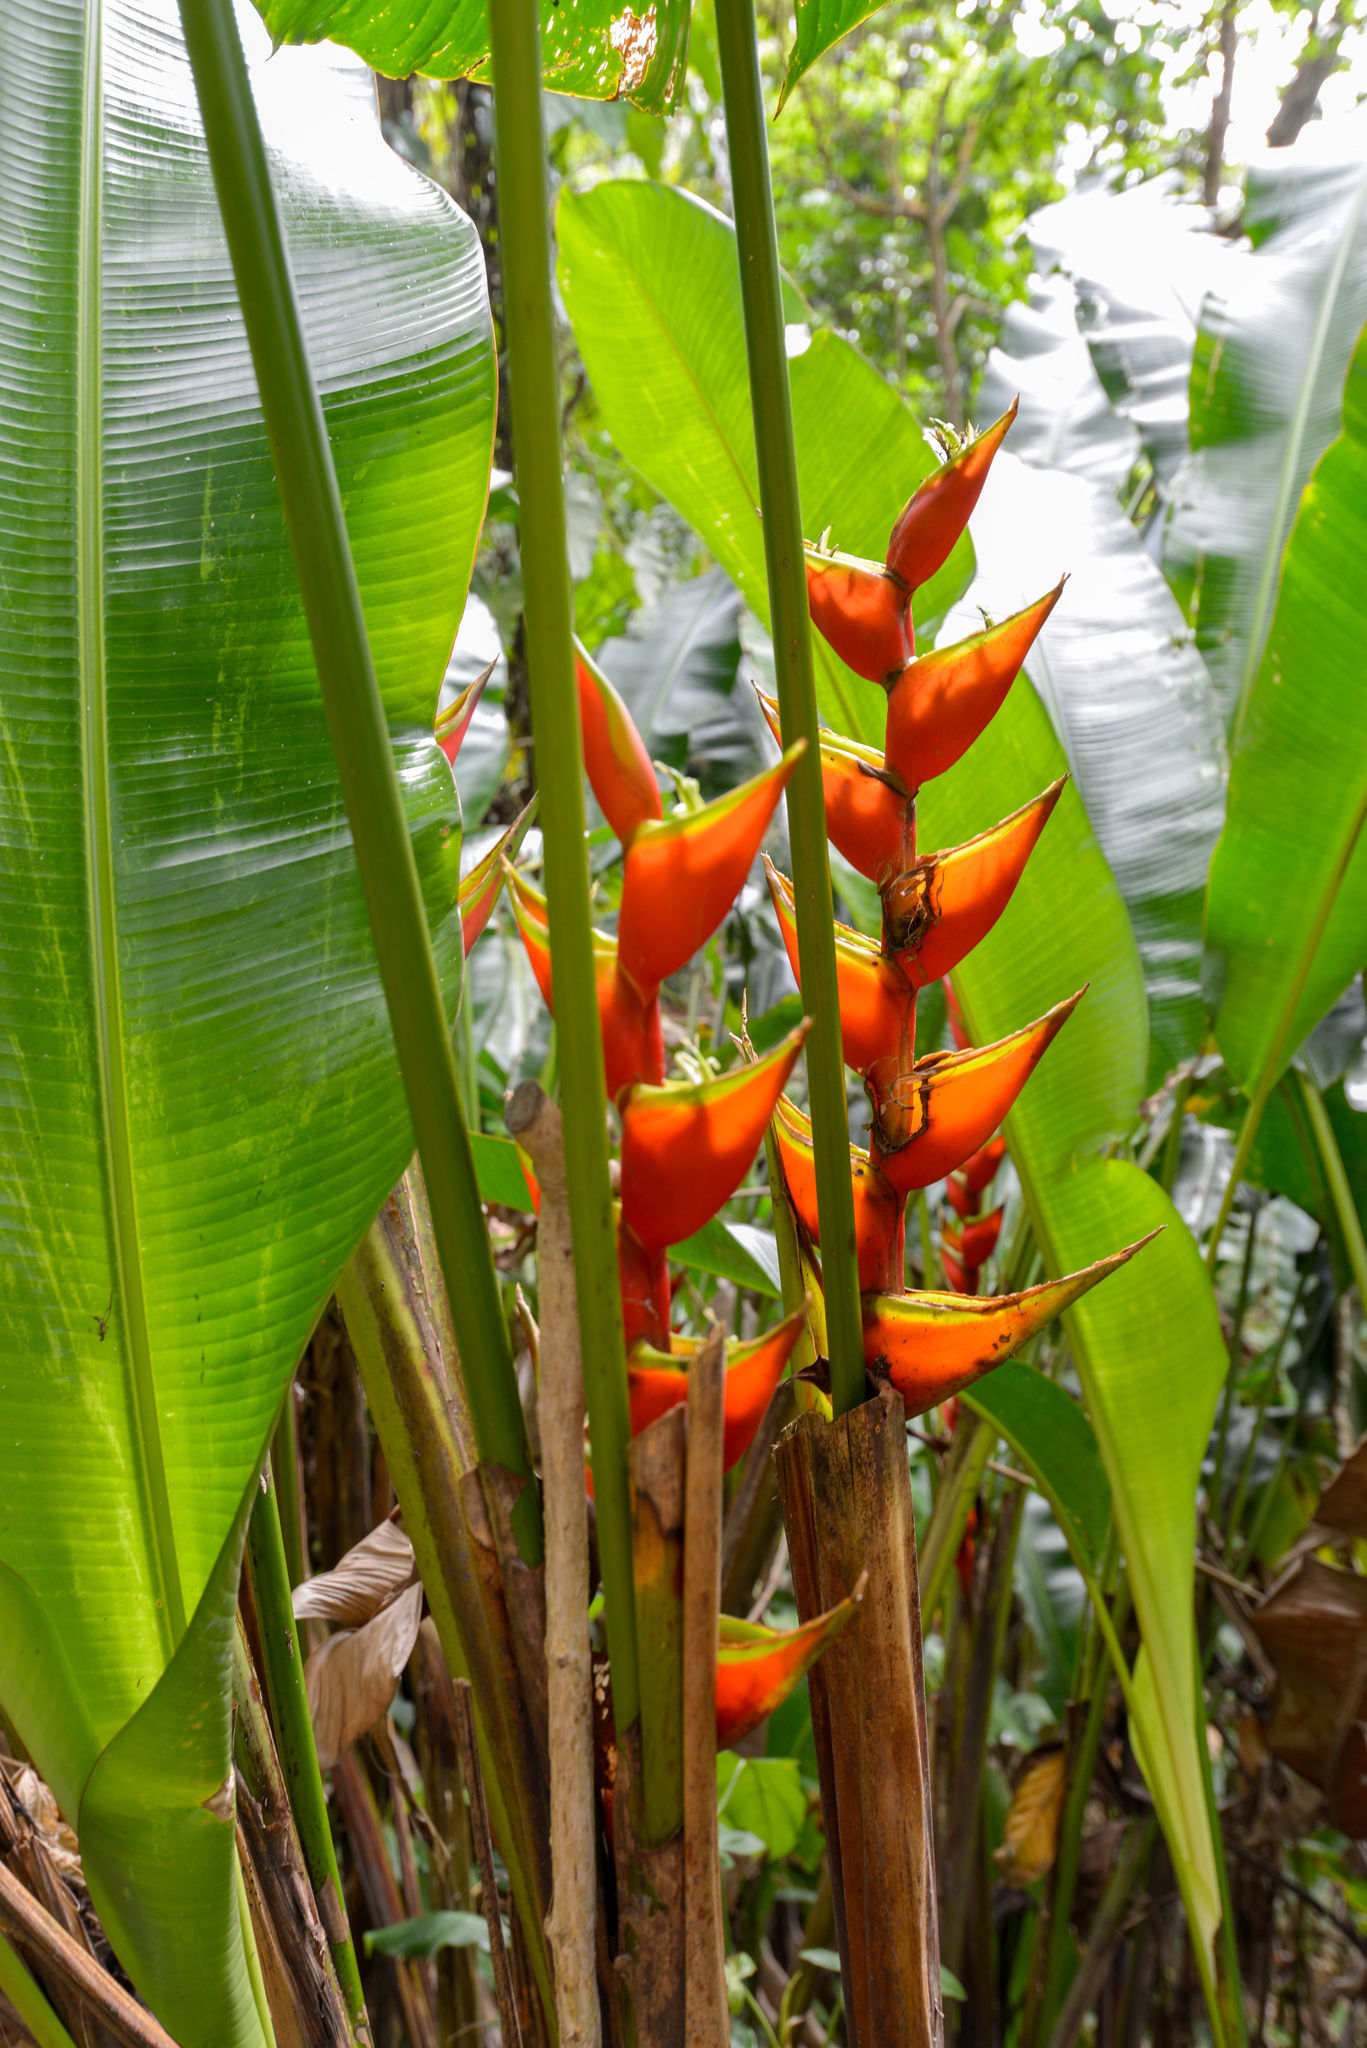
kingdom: Plantae
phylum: Tracheophyta
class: Liliopsida
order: Zingiberales
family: Heliconiaceae
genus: Heliconia
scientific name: Heliconia bihai
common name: Macaw flower
